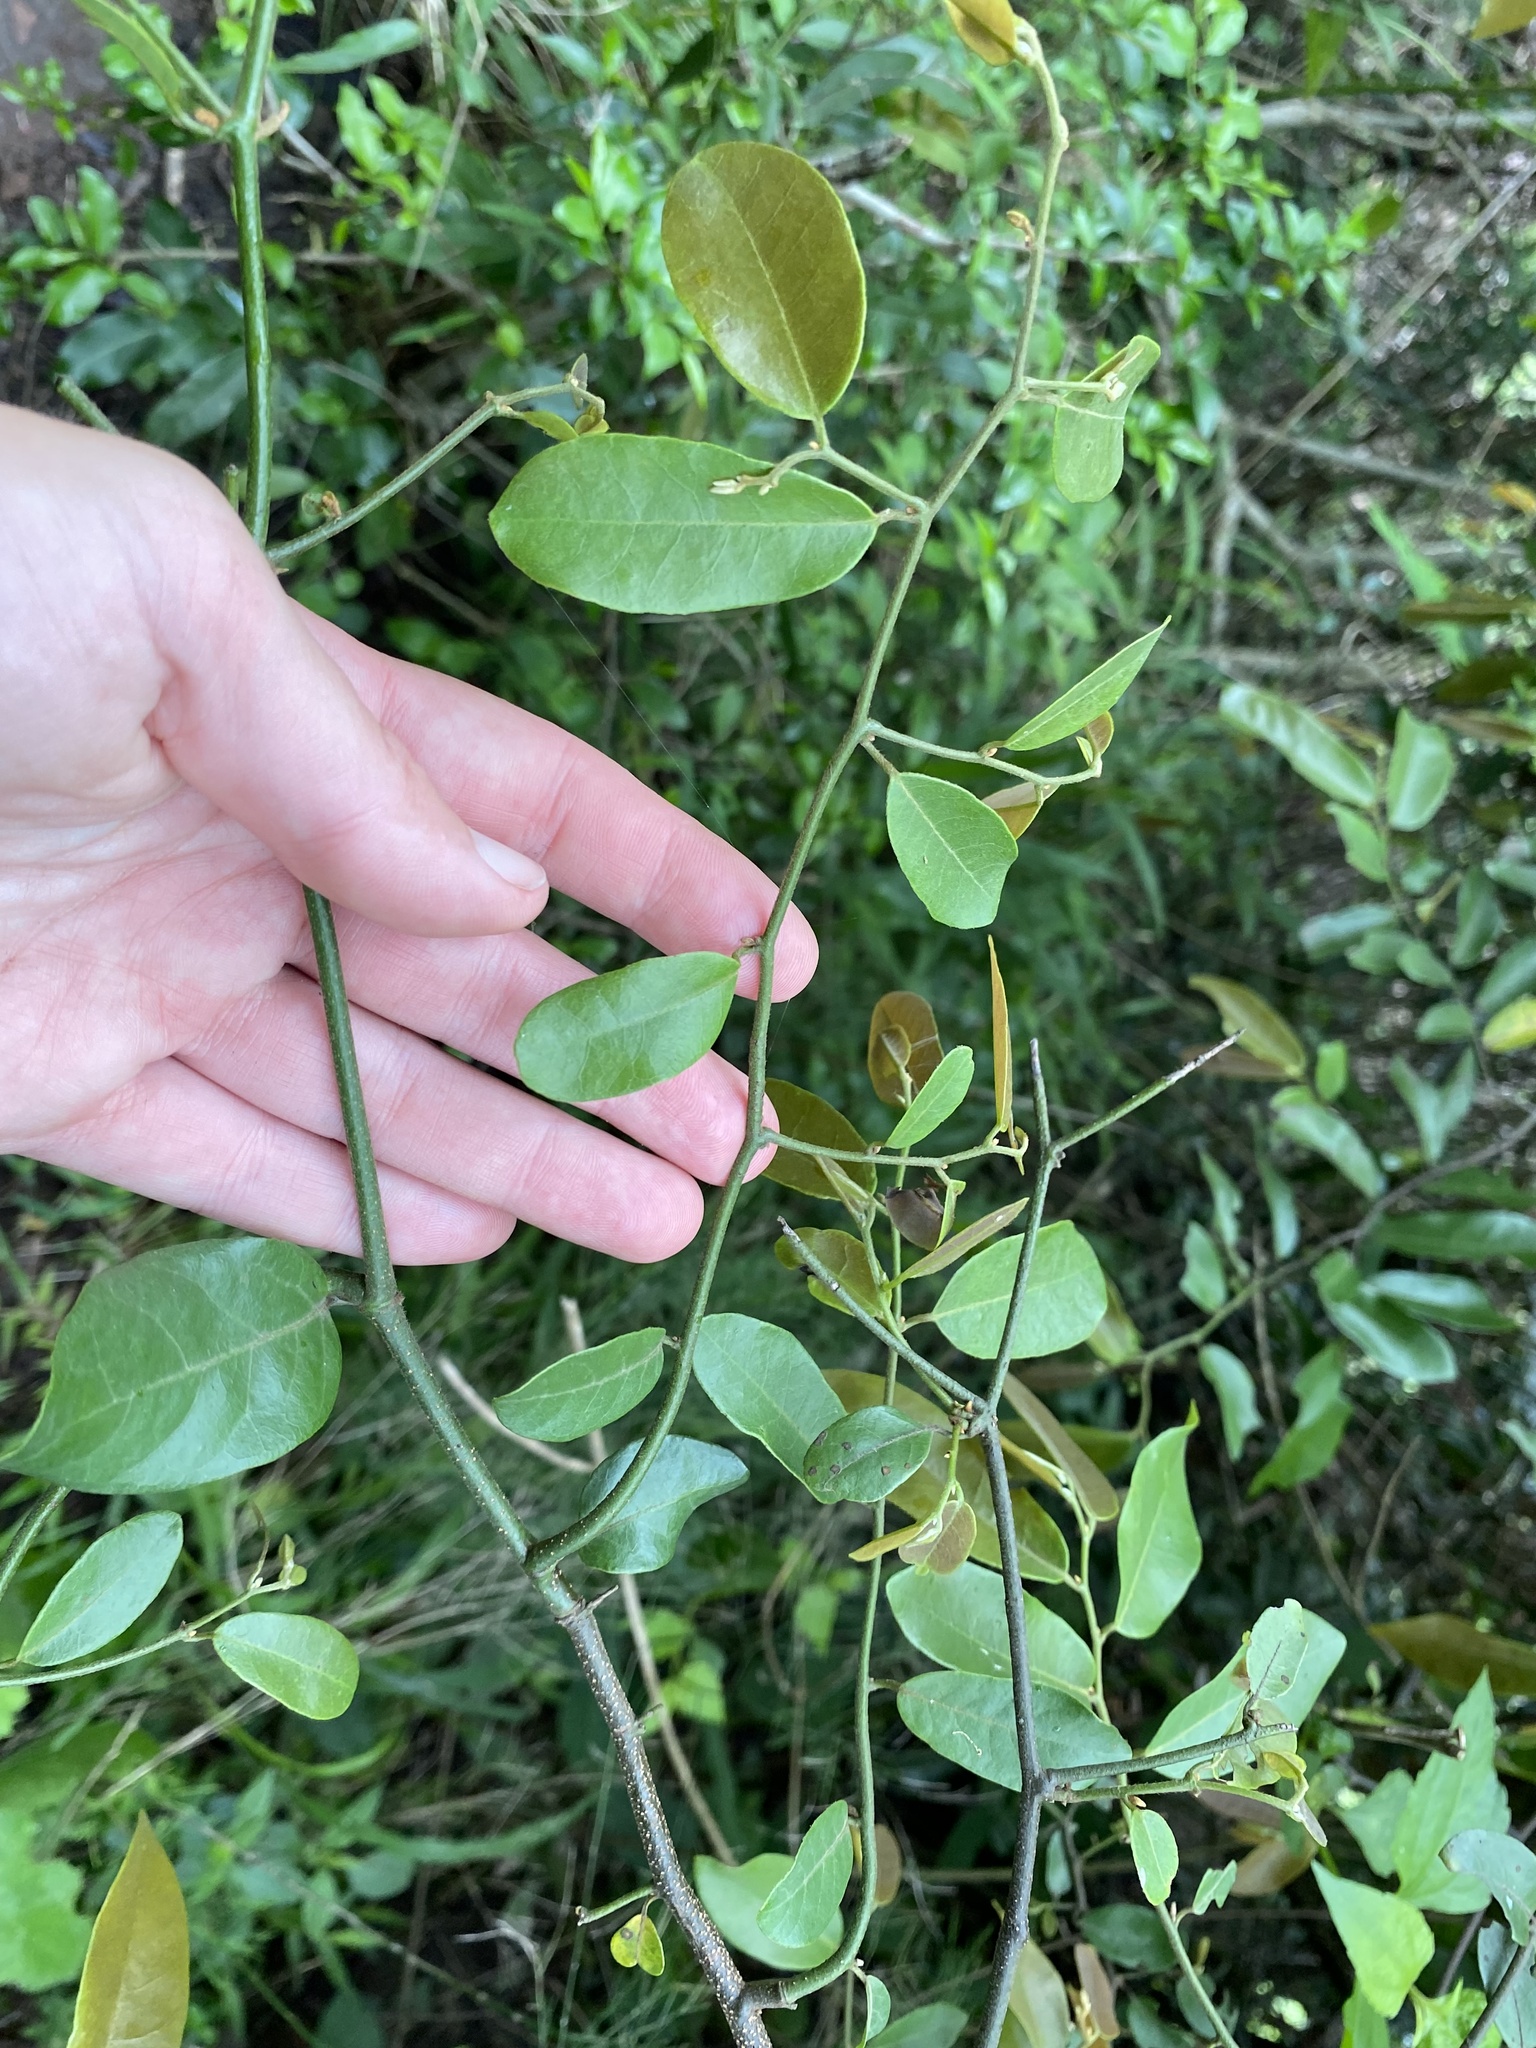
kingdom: Plantae
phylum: Tracheophyta
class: Magnoliopsida
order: Magnoliales
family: Annonaceae
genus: Monanthotaxis
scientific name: Monanthotaxis caffra
